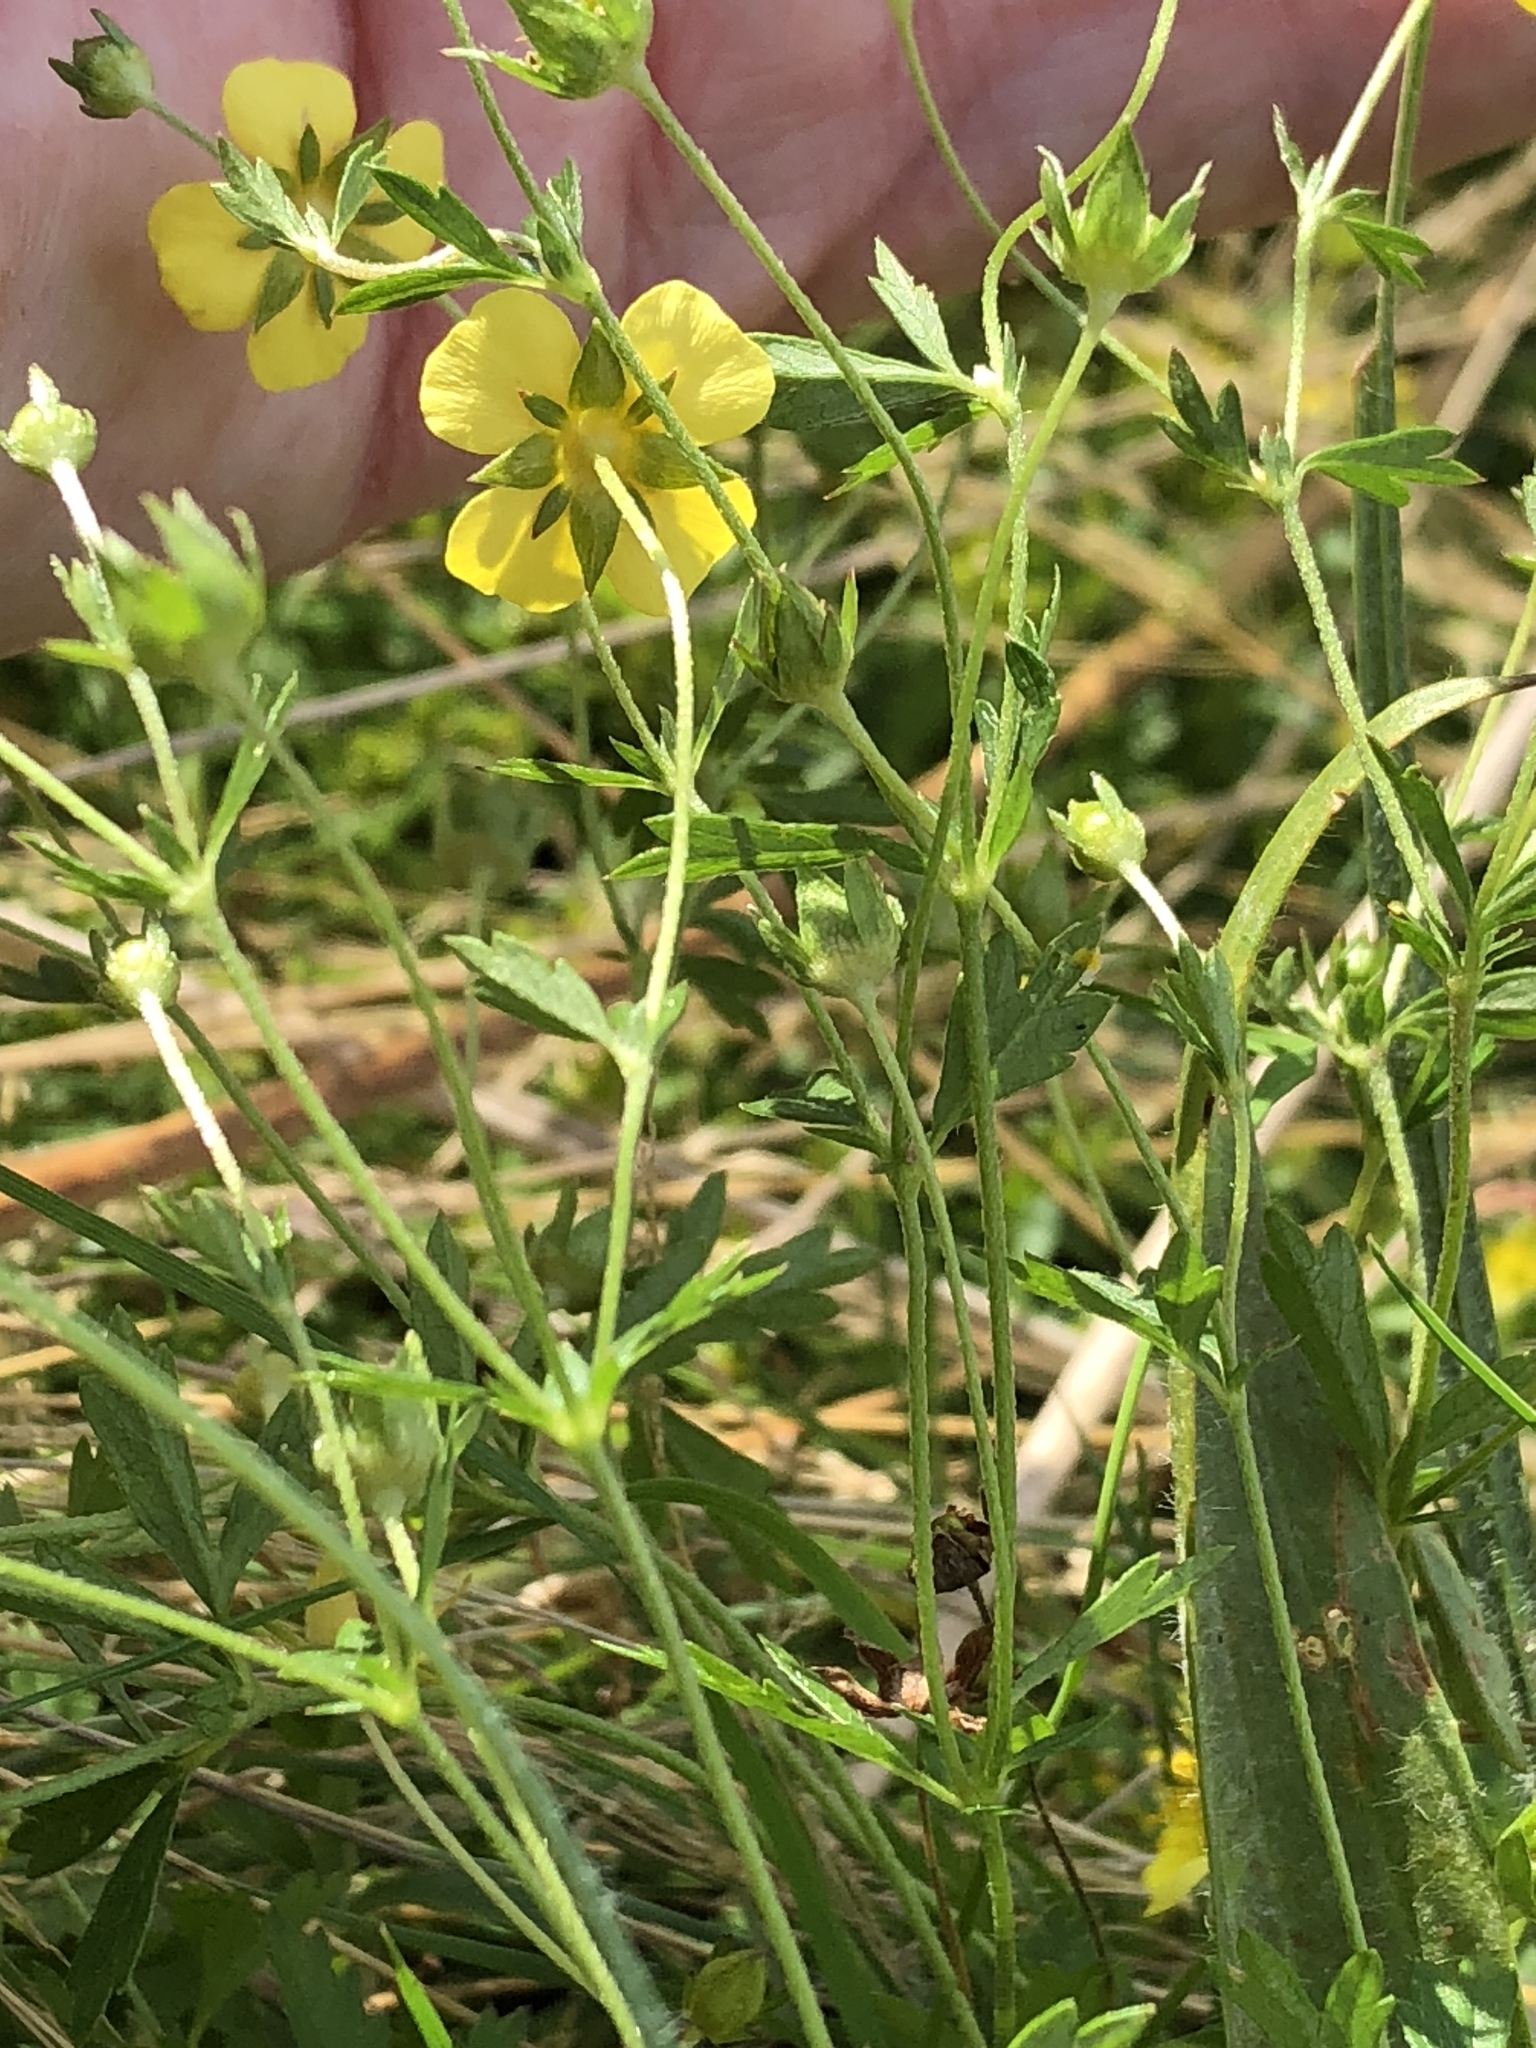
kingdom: Plantae
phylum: Tracheophyta
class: Magnoliopsida
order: Rosales
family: Rosaceae
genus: Potentilla
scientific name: Potentilla erecta
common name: Tormentil
